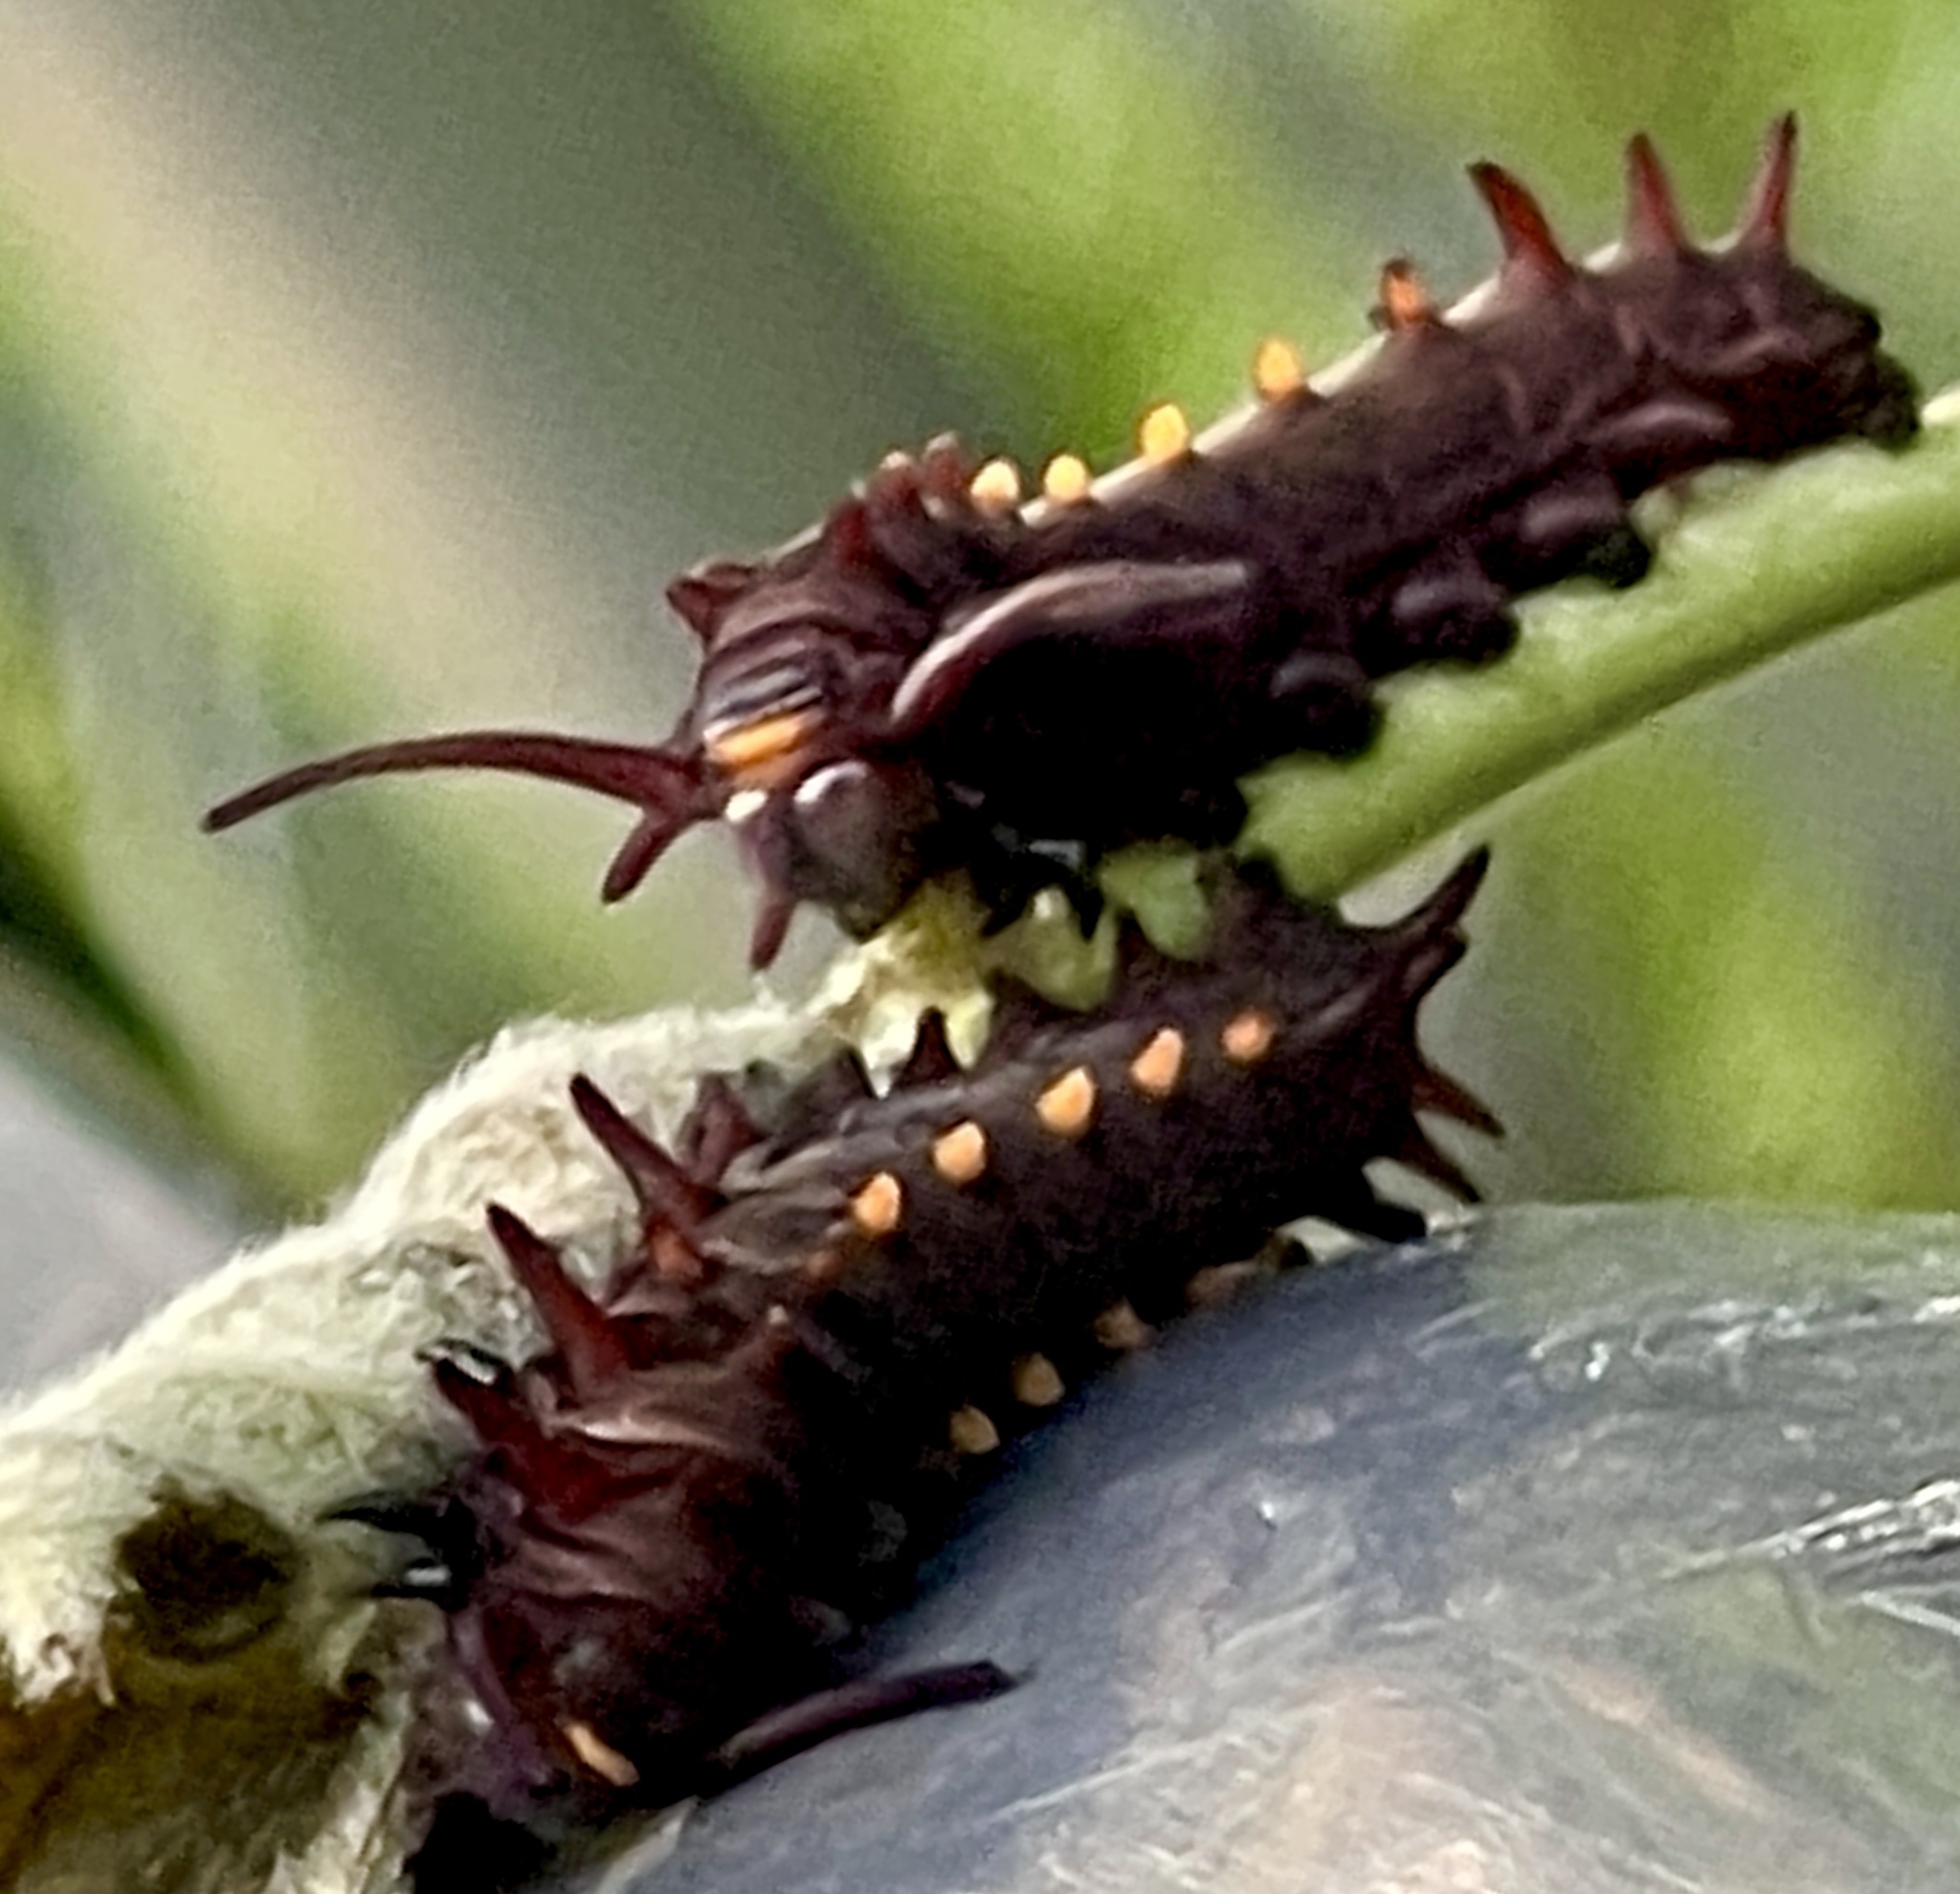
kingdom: Animalia
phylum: Arthropoda
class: Insecta
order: Lepidoptera
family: Papilionidae
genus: Battus
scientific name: Battus philenor
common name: Pipevine swallowtail
